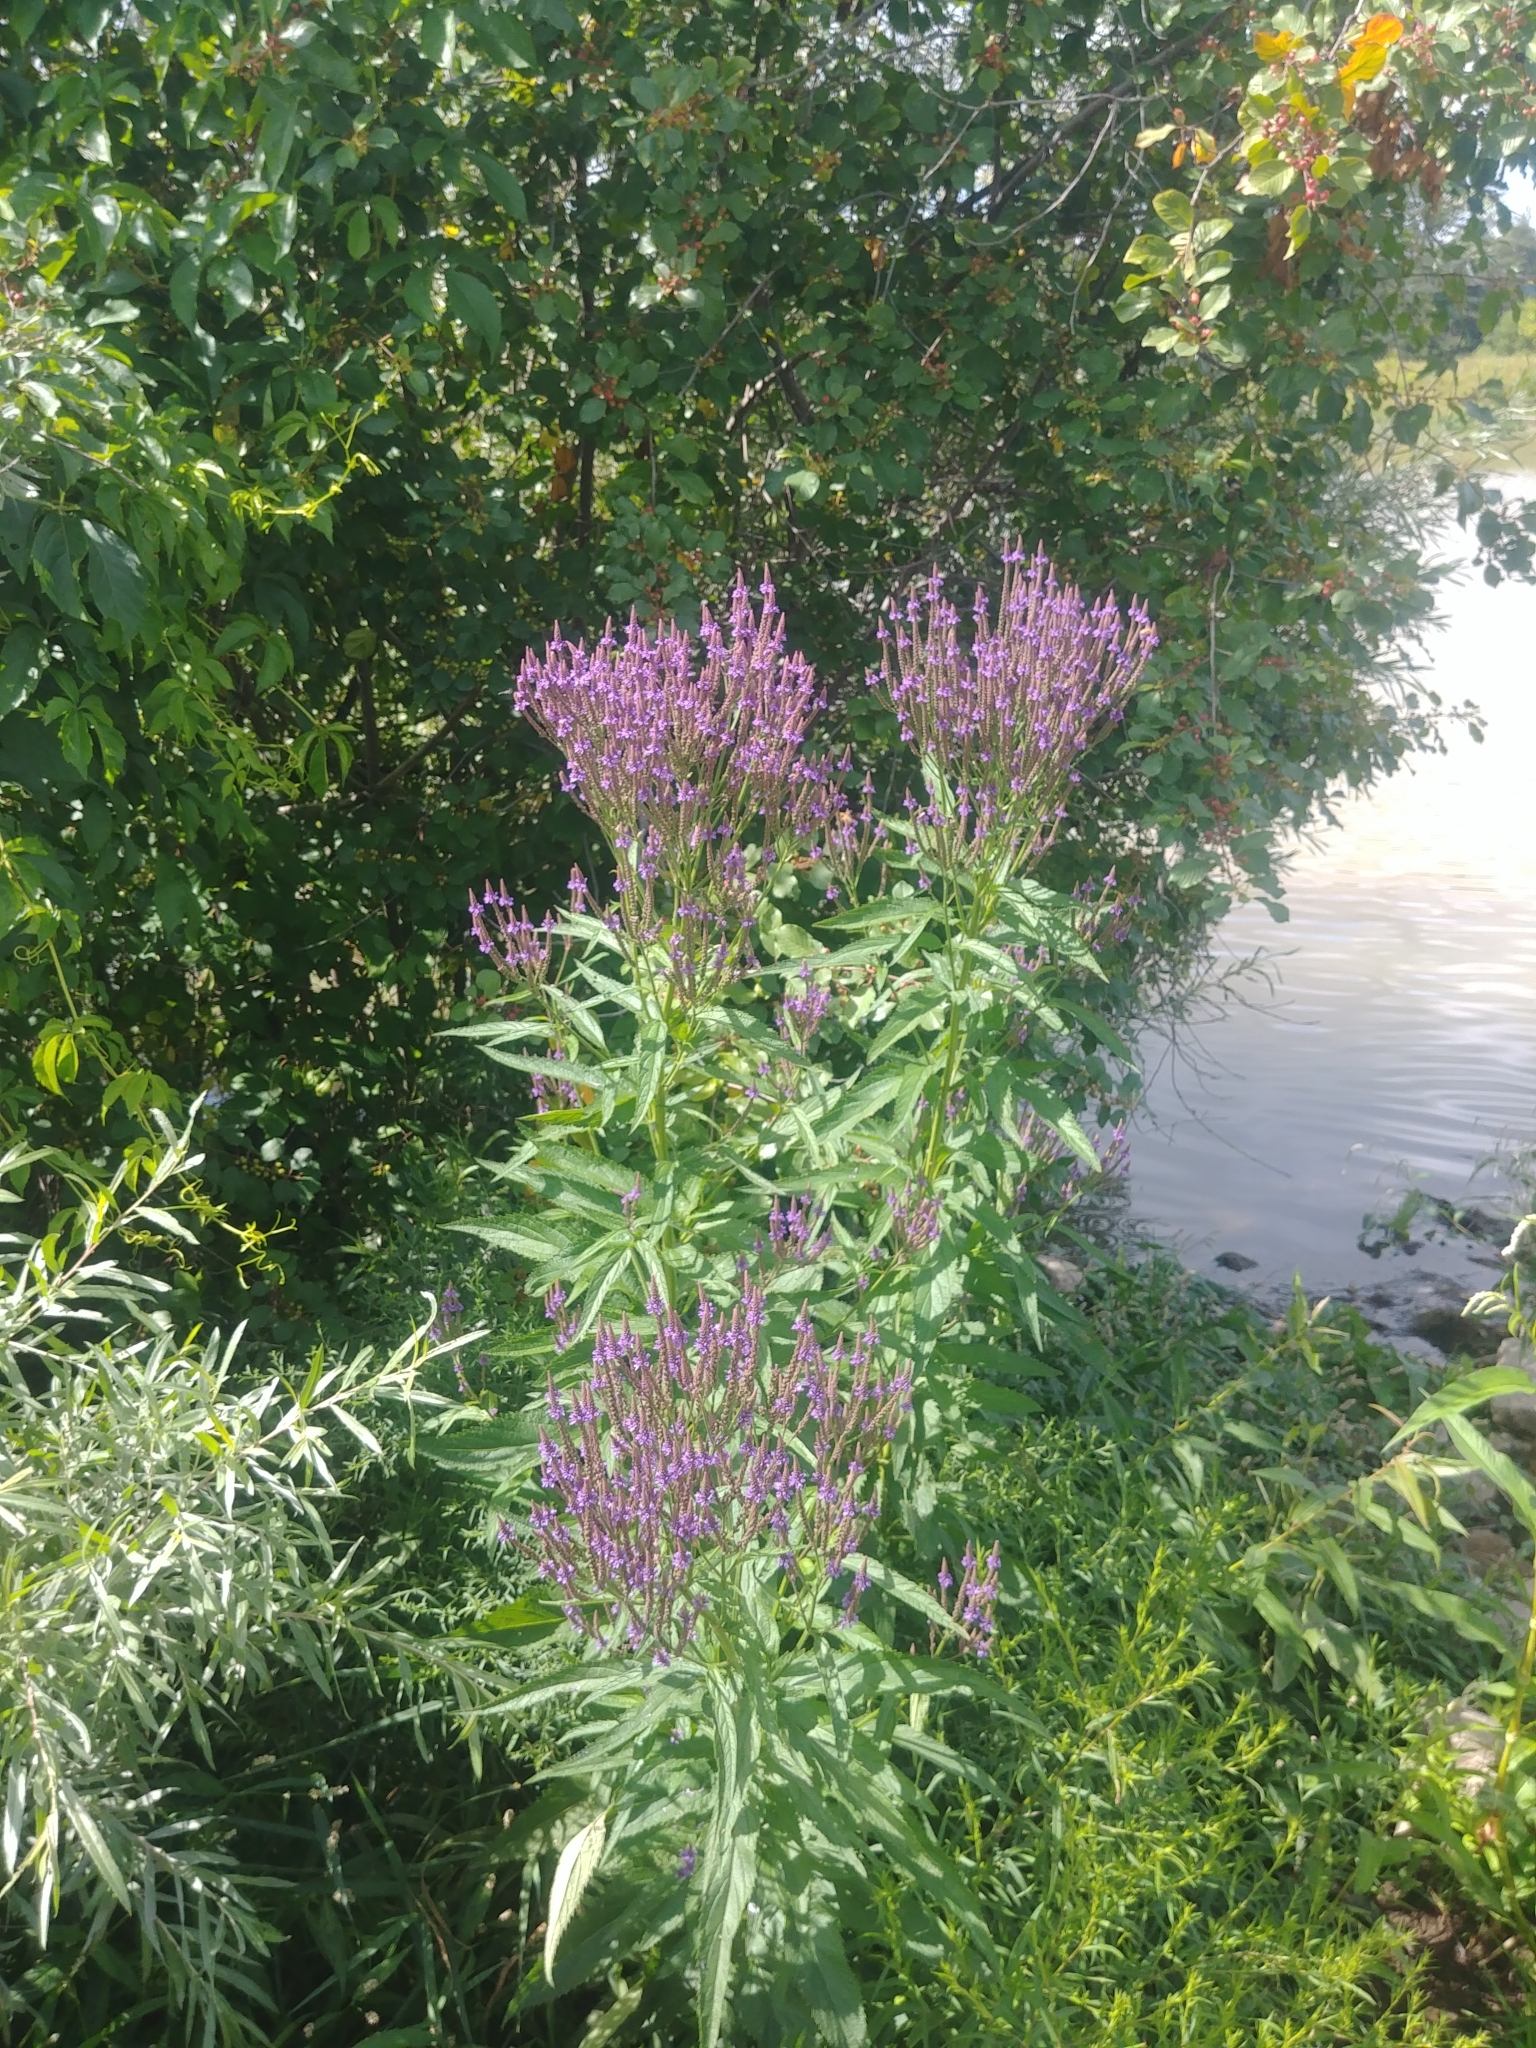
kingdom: Plantae
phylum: Tracheophyta
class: Magnoliopsida
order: Lamiales
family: Verbenaceae
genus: Verbena
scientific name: Verbena hastata
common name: American blue vervain
